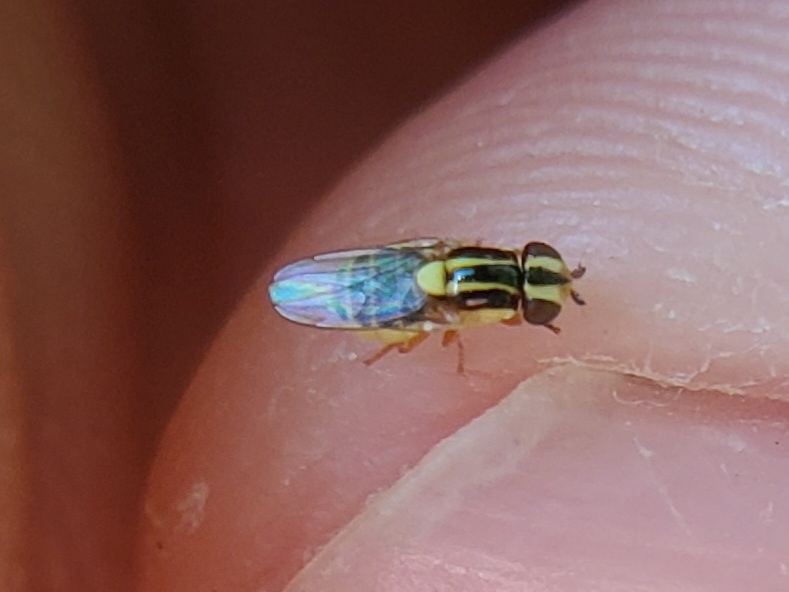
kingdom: Animalia
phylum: Arthropoda
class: Insecta
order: Diptera
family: Chloropidae
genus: Thaumatomyia
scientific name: Thaumatomyia glabra
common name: Chloropid fly
